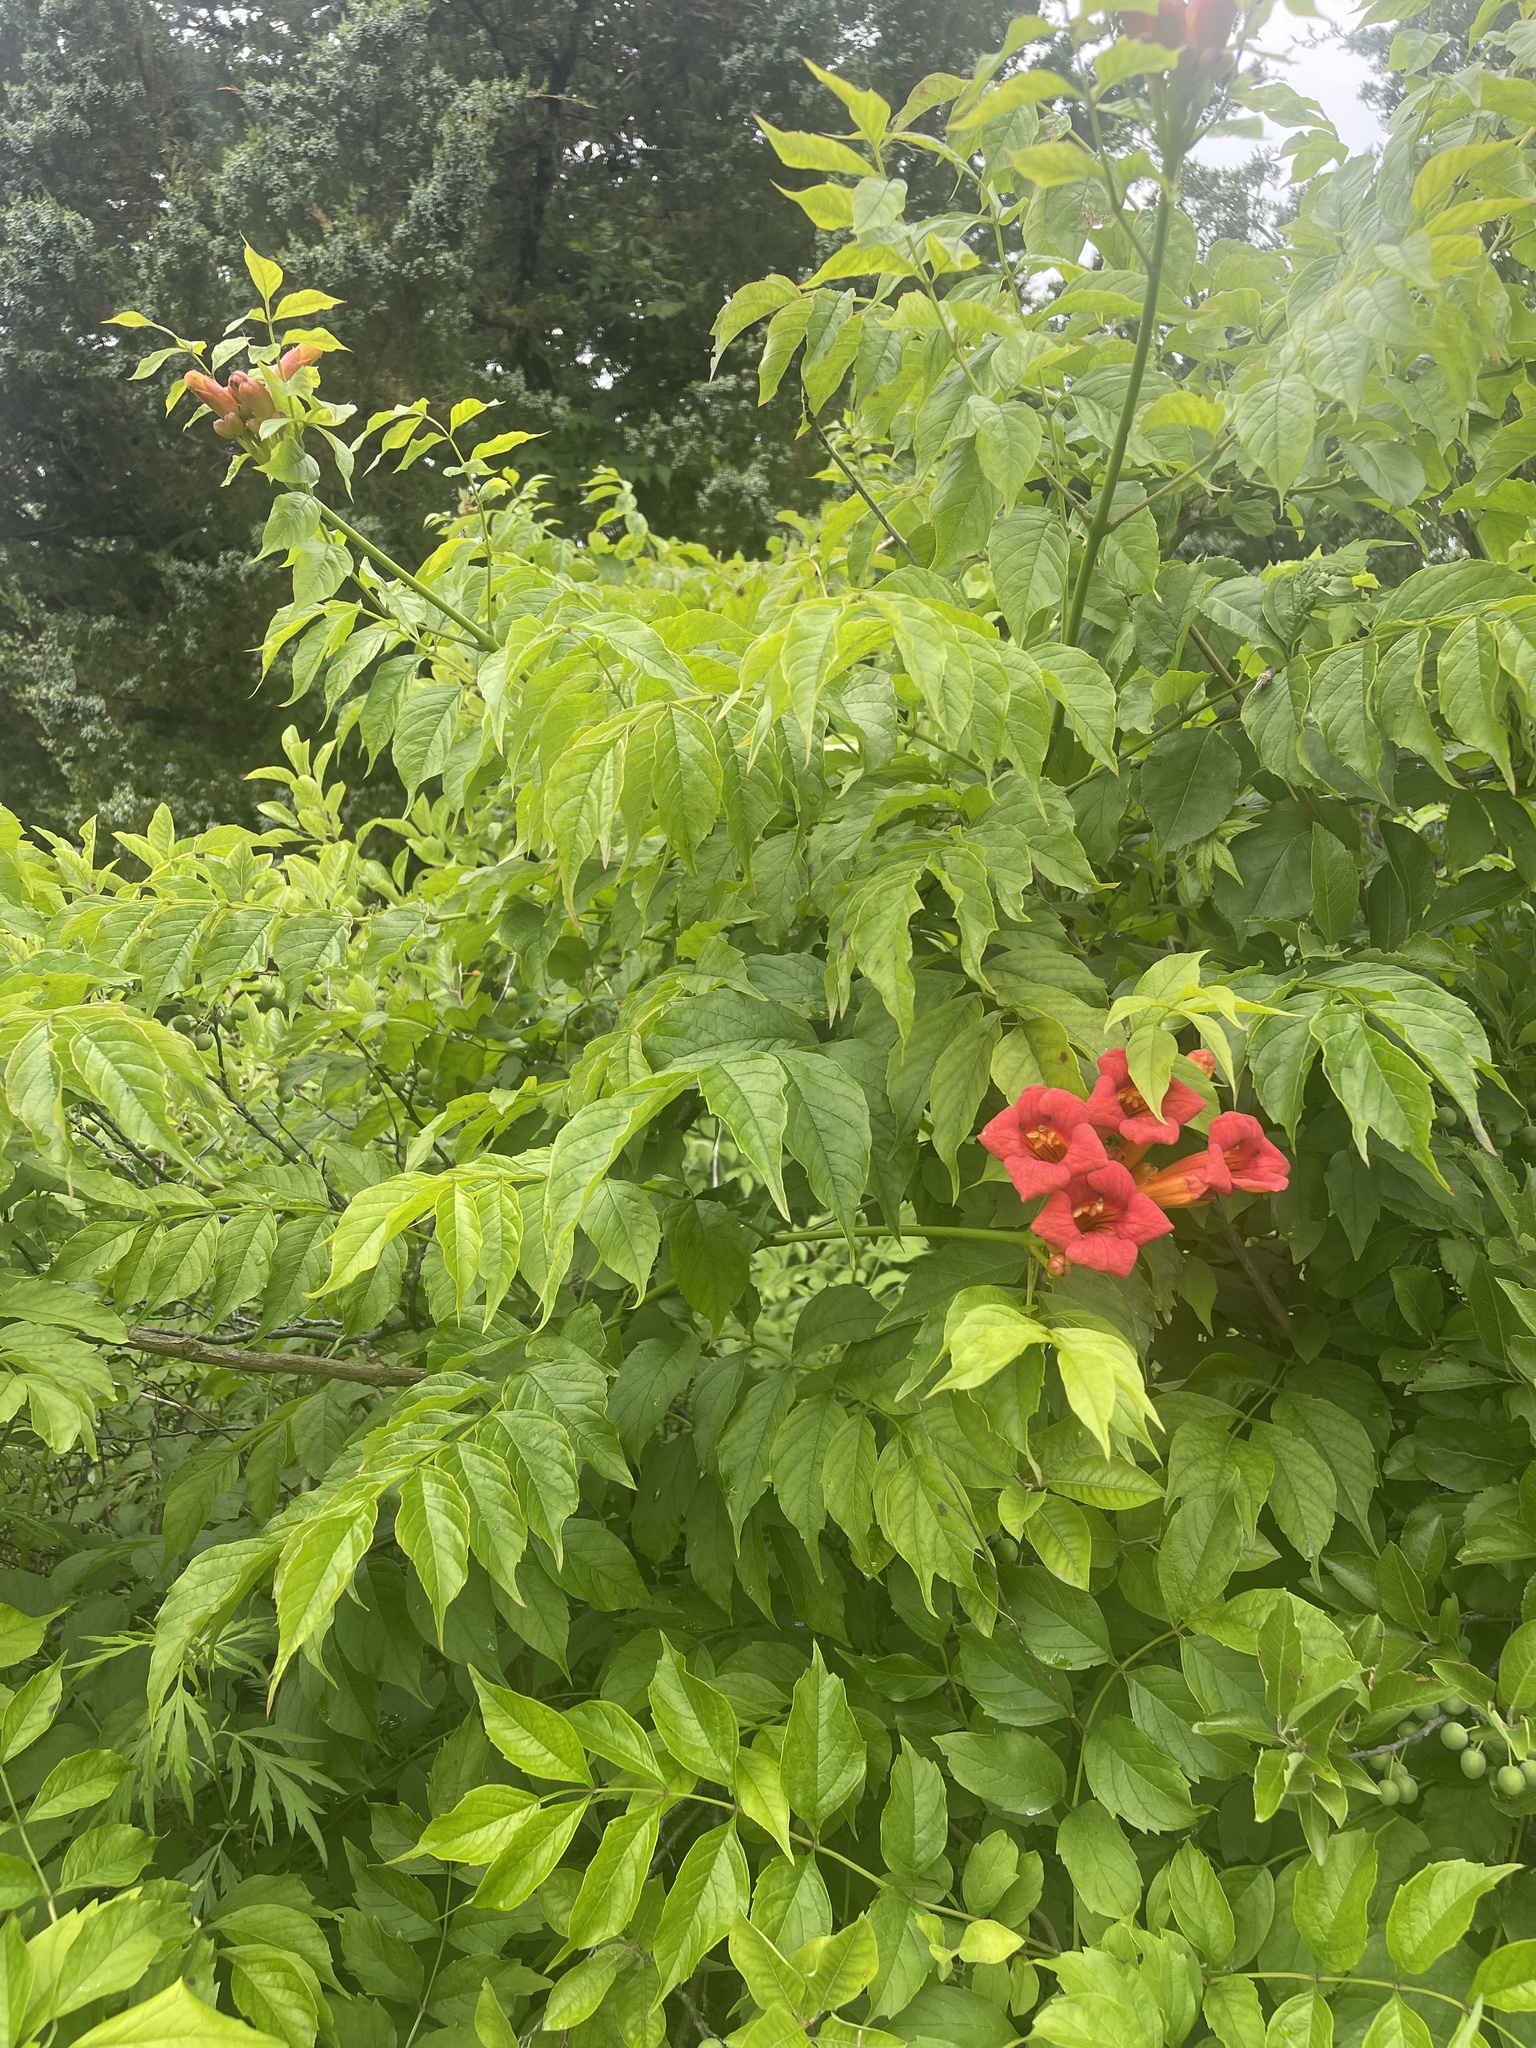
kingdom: Plantae
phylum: Tracheophyta
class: Magnoliopsida
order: Lamiales
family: Bignoniaceae
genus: Campsis
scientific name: Campsis radicans
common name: Trumpet-creeper
